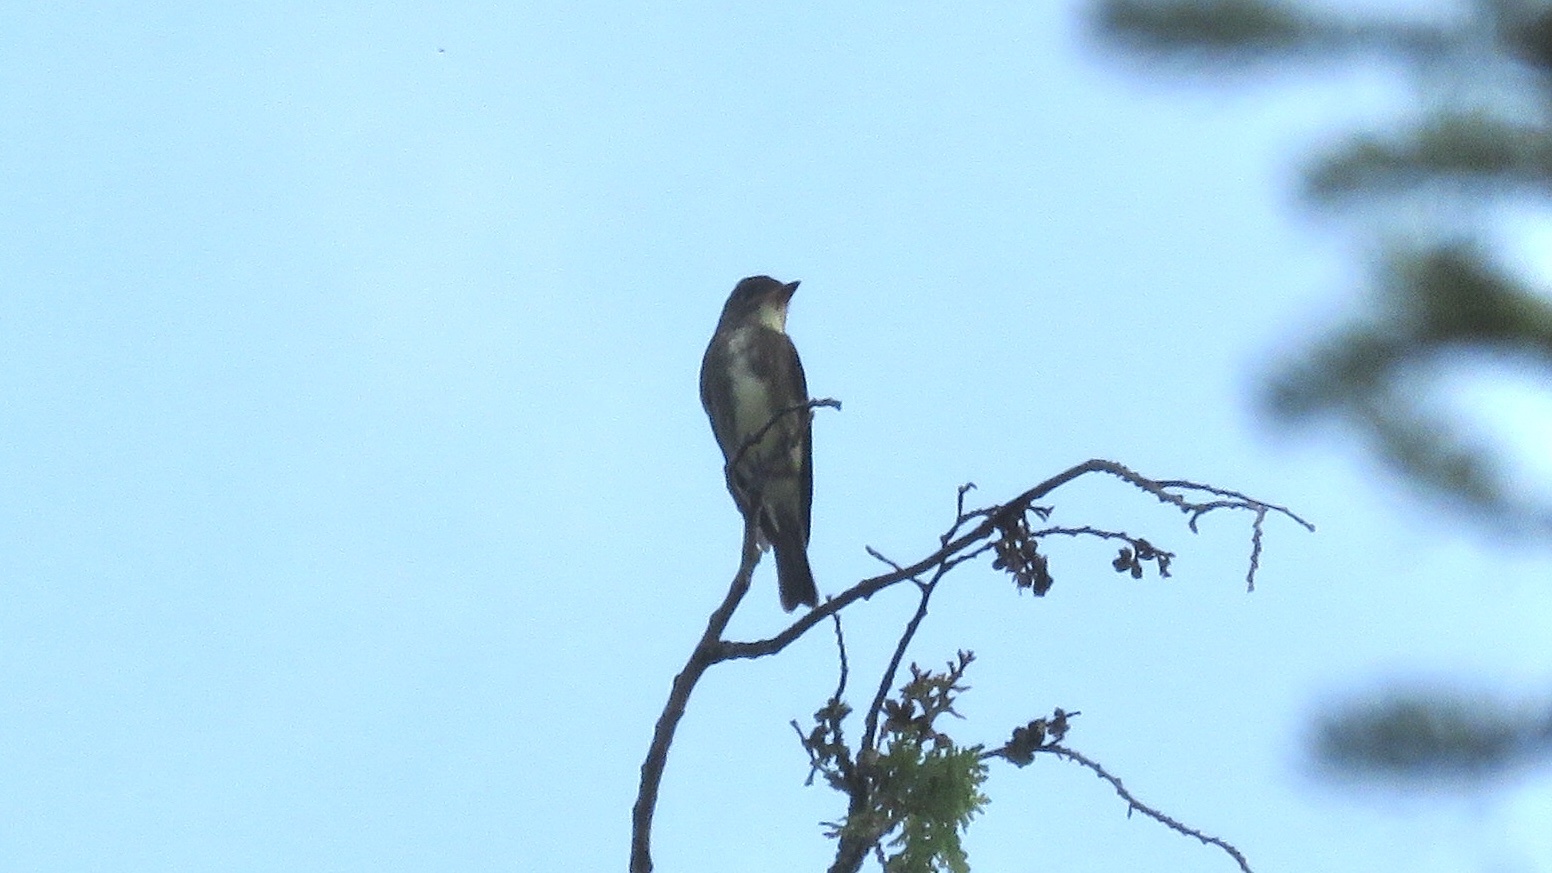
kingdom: Animalia
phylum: Chordata
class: Aves
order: Passeriformes
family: Tyrannidae
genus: Contopus
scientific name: Contopus cooperi
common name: Olive-sided flycatcher
